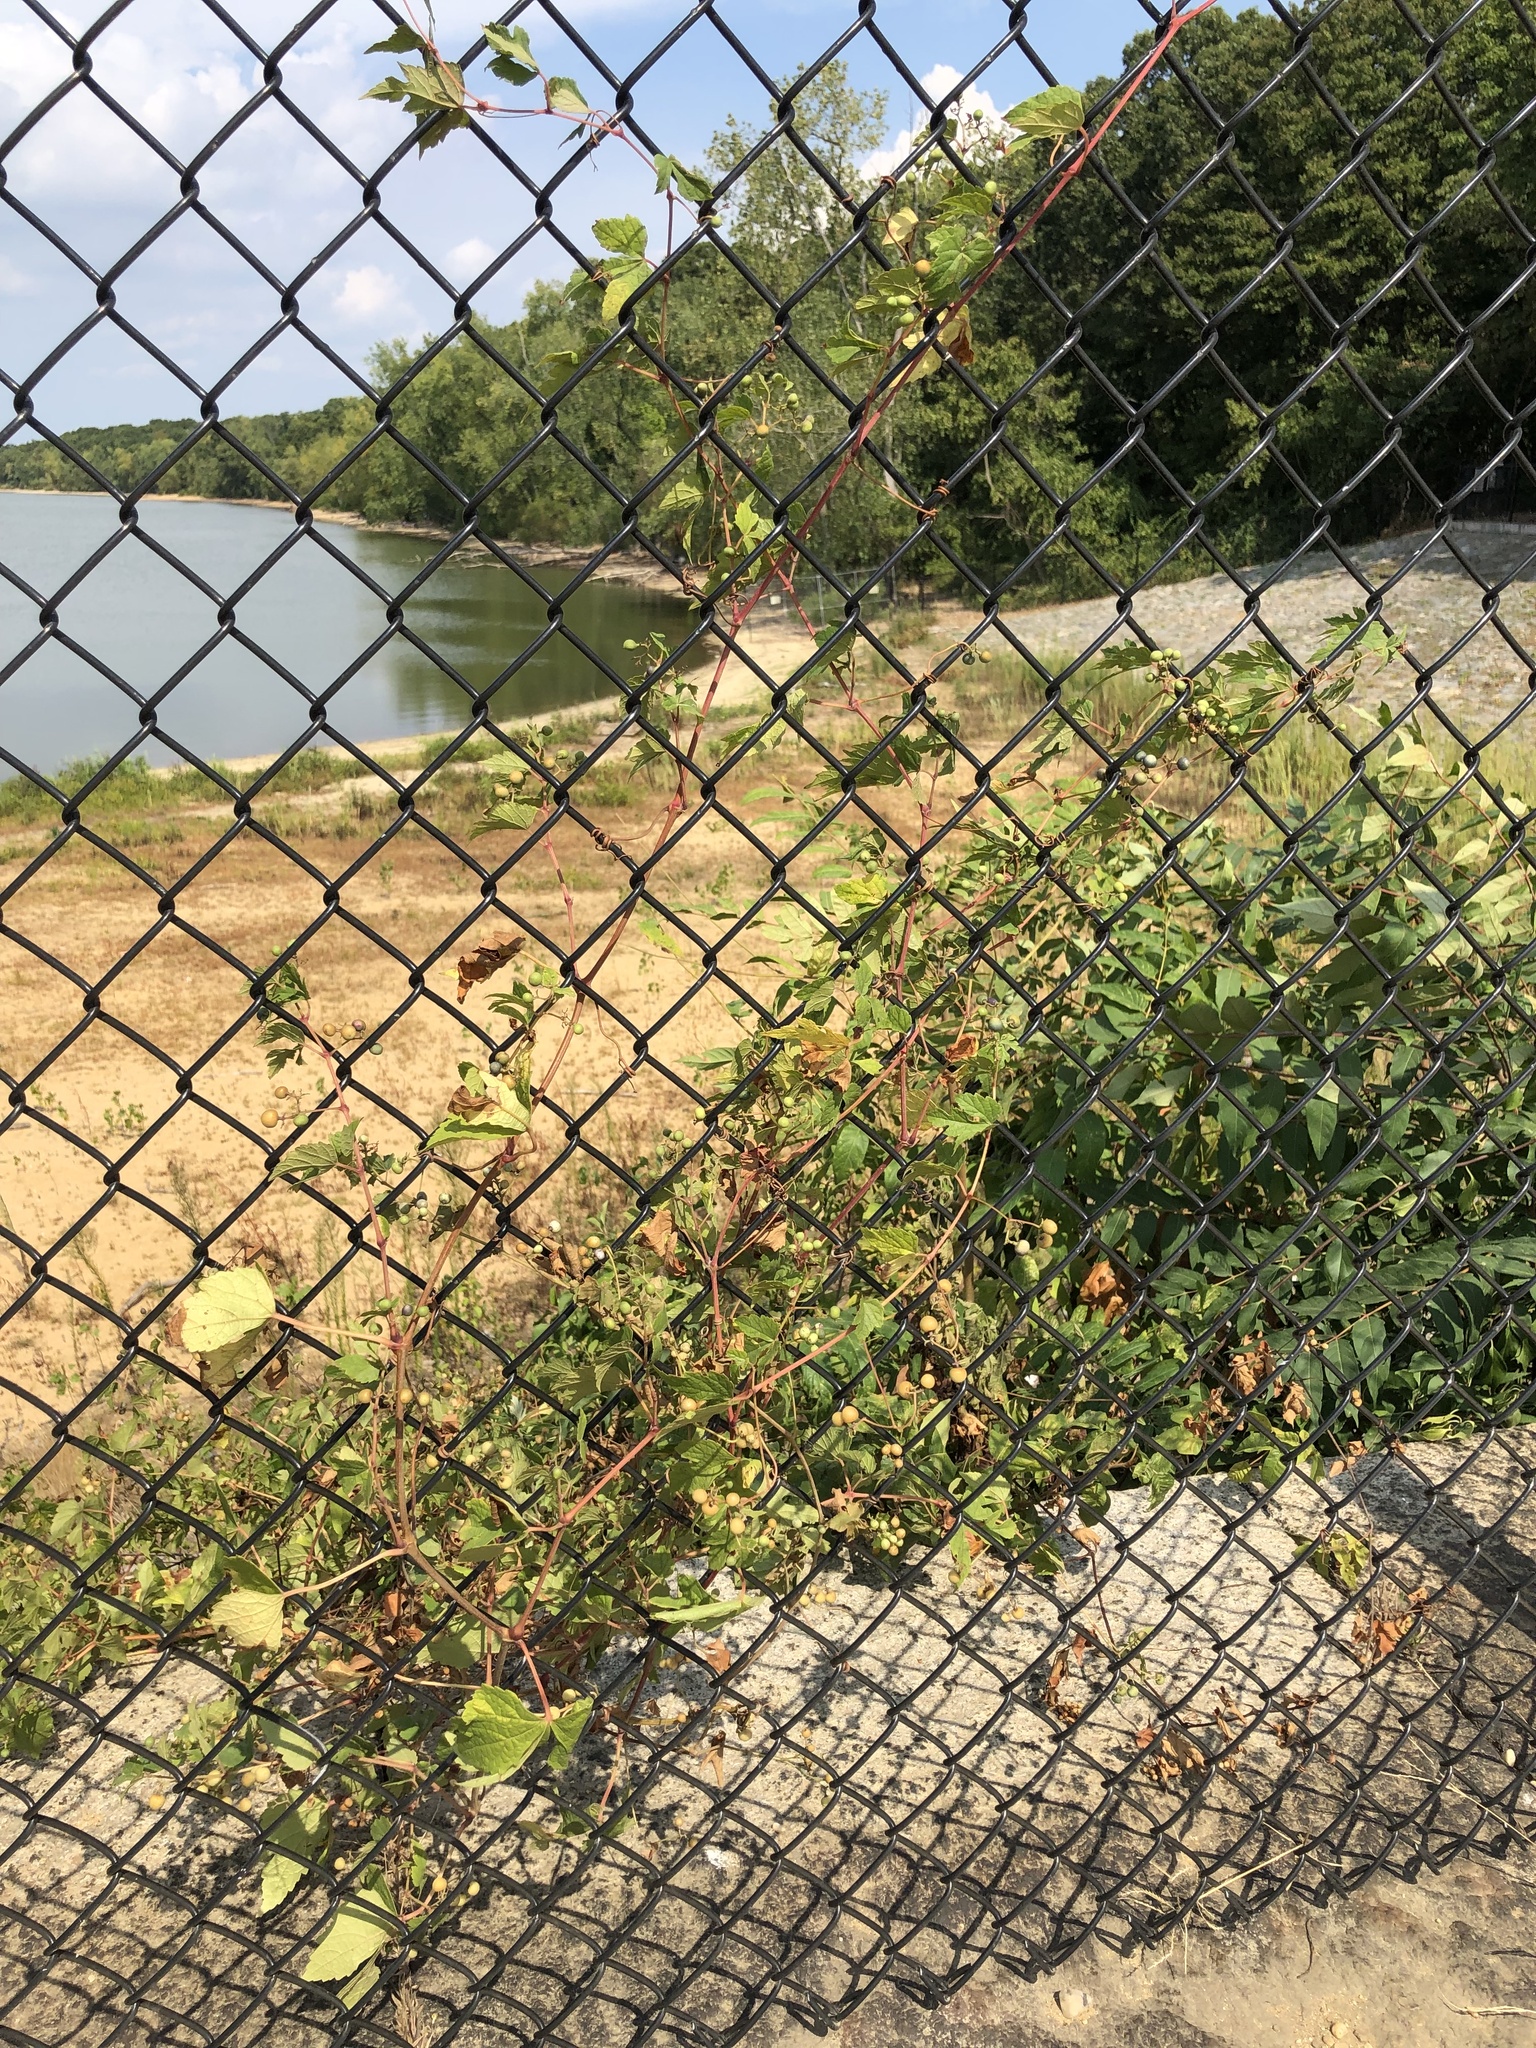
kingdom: Plantae
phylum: Tracheophyta
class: Magnoliopsida
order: Vitales
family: Vitaceae
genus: Ampelopsis
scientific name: Ampelopsis glandulosa
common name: Amur peppervine
